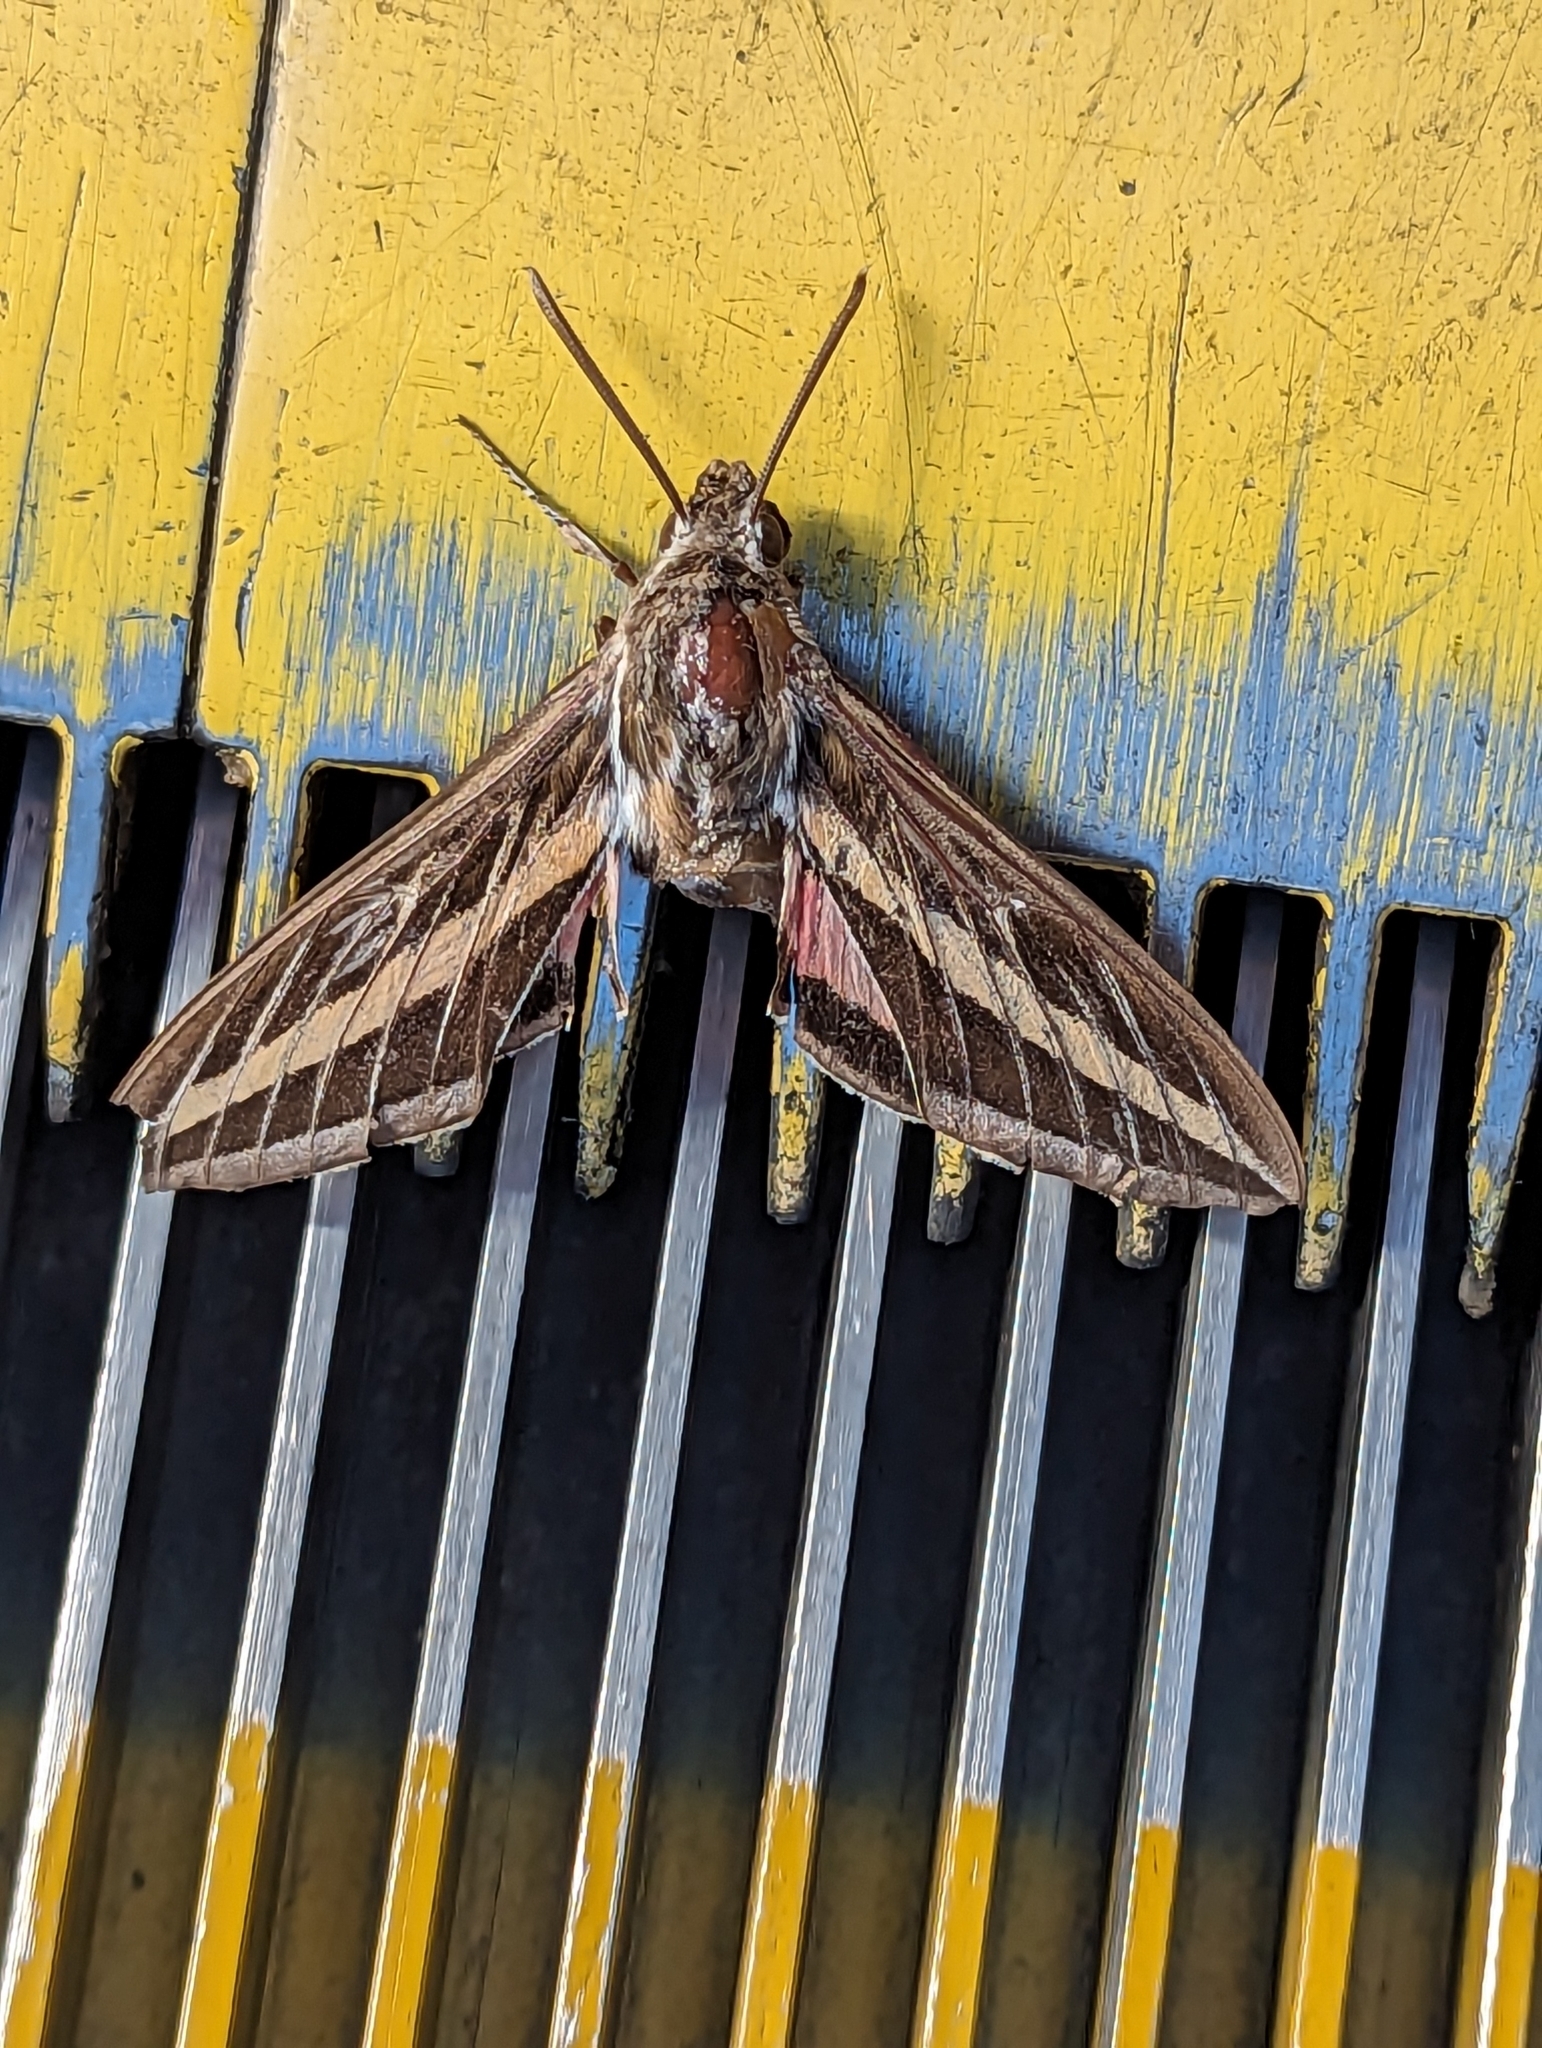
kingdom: Animalia
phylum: Arthropoda
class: Insecta
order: Lepidoptera
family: Sphingidae
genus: Hyles
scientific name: Hyles lineata
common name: White-lined sphinx
